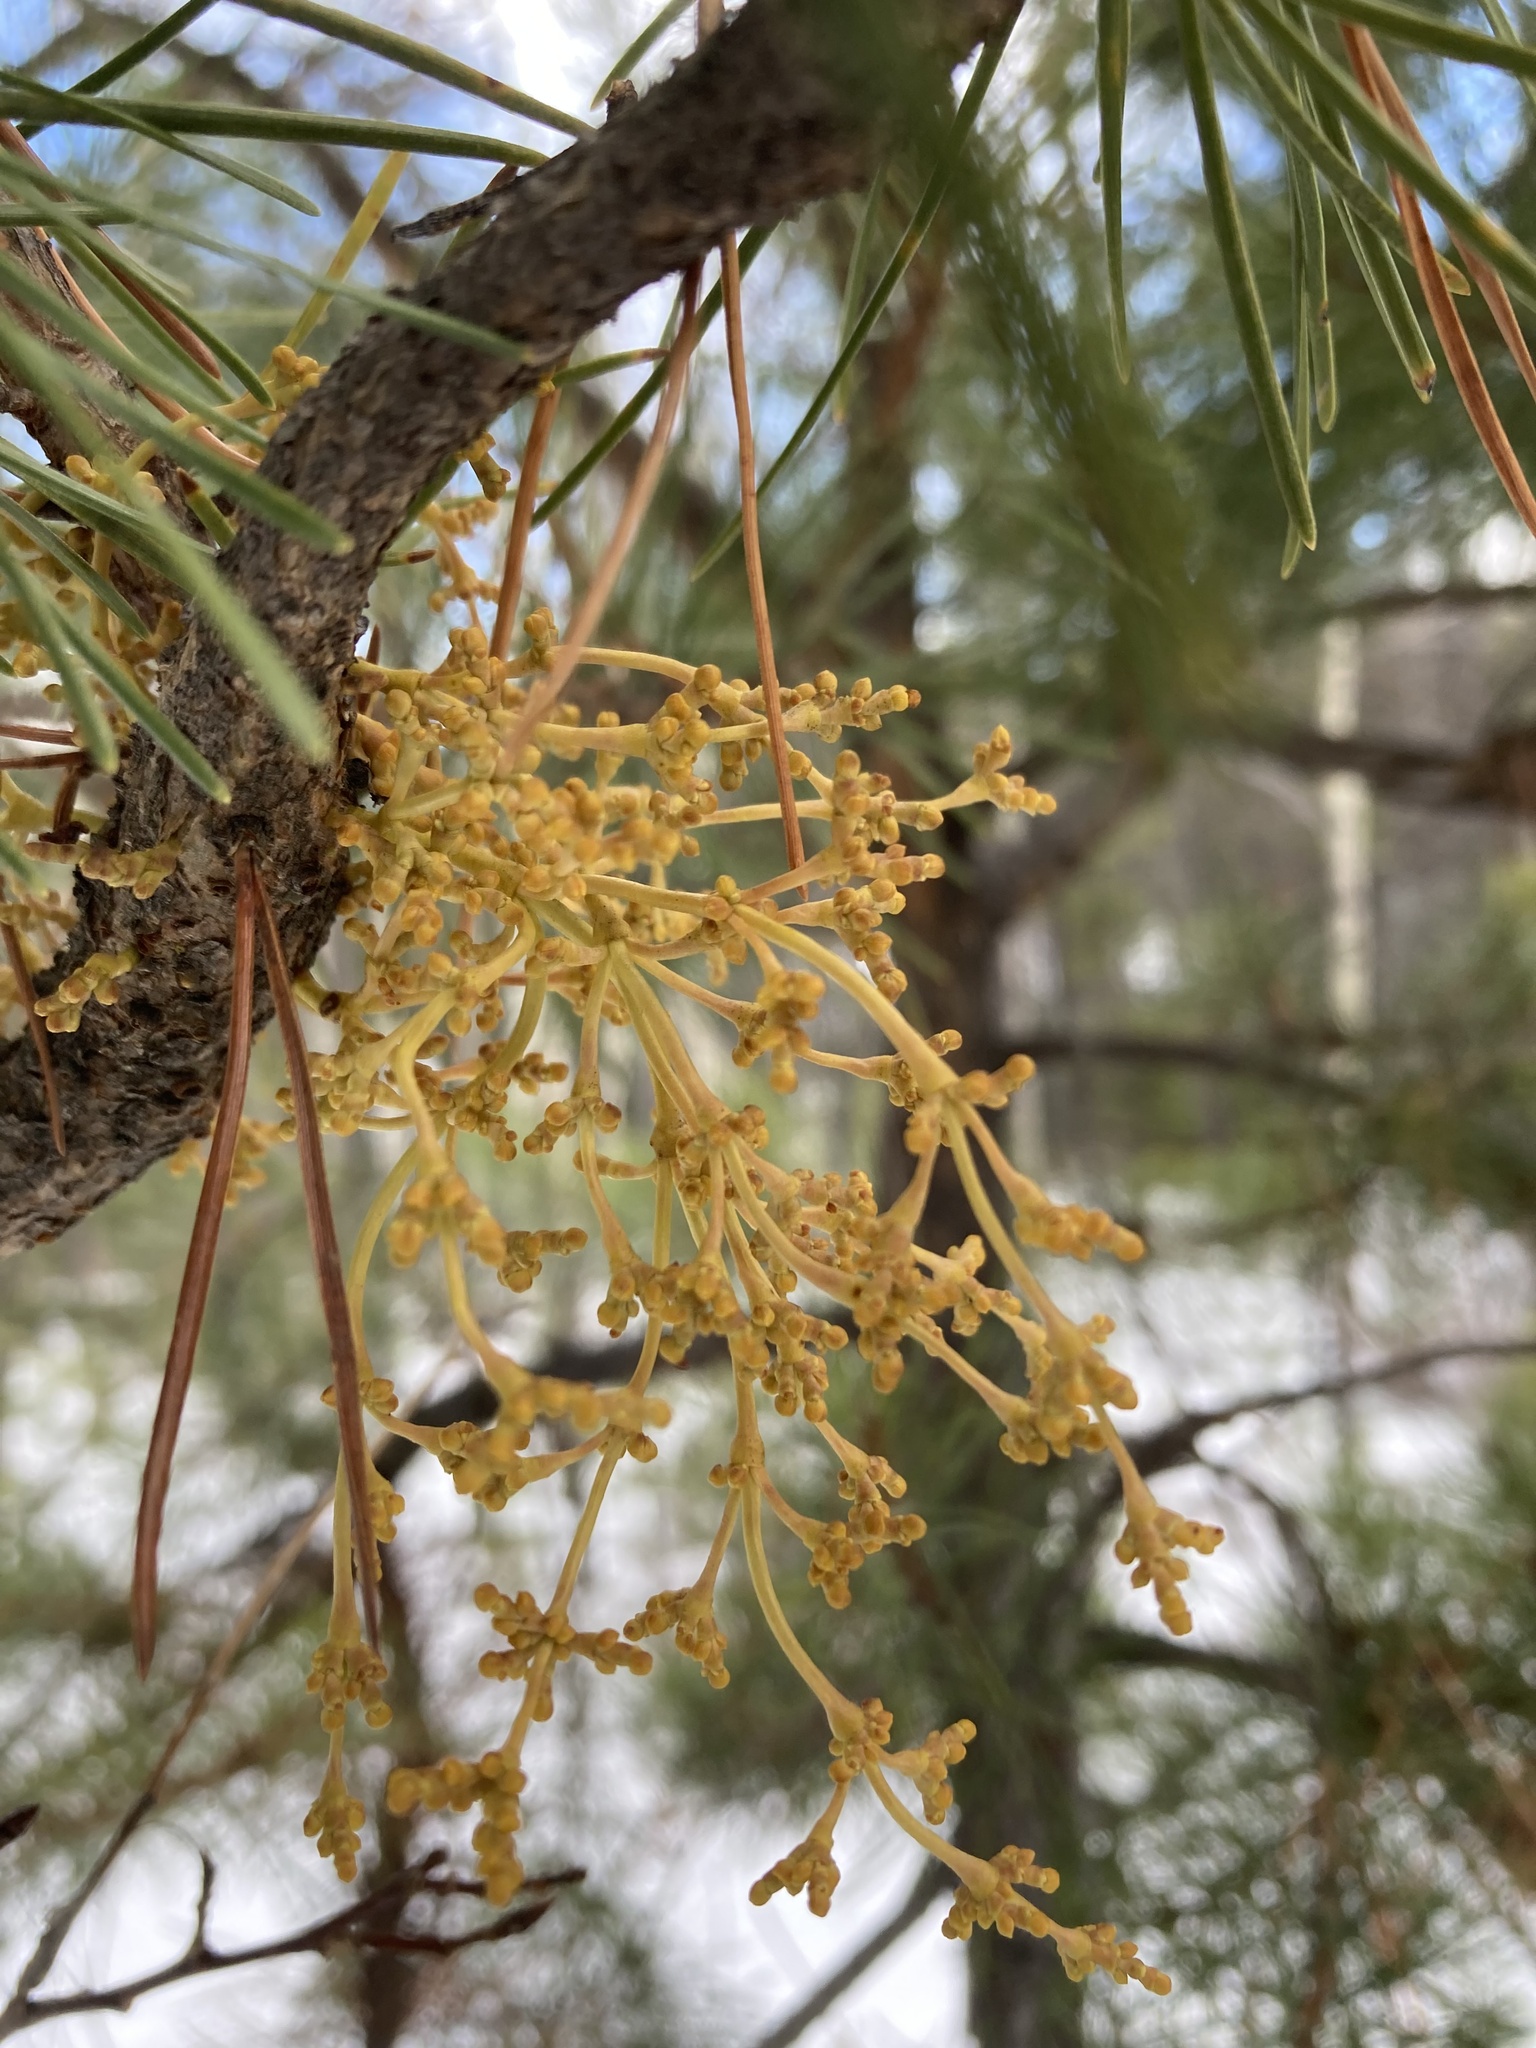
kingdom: Plantae
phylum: Tracheophyta
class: Magnoliopsida
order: Santalales
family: Viscaceae
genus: Arceuthobium
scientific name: Arceuthobium americanum
